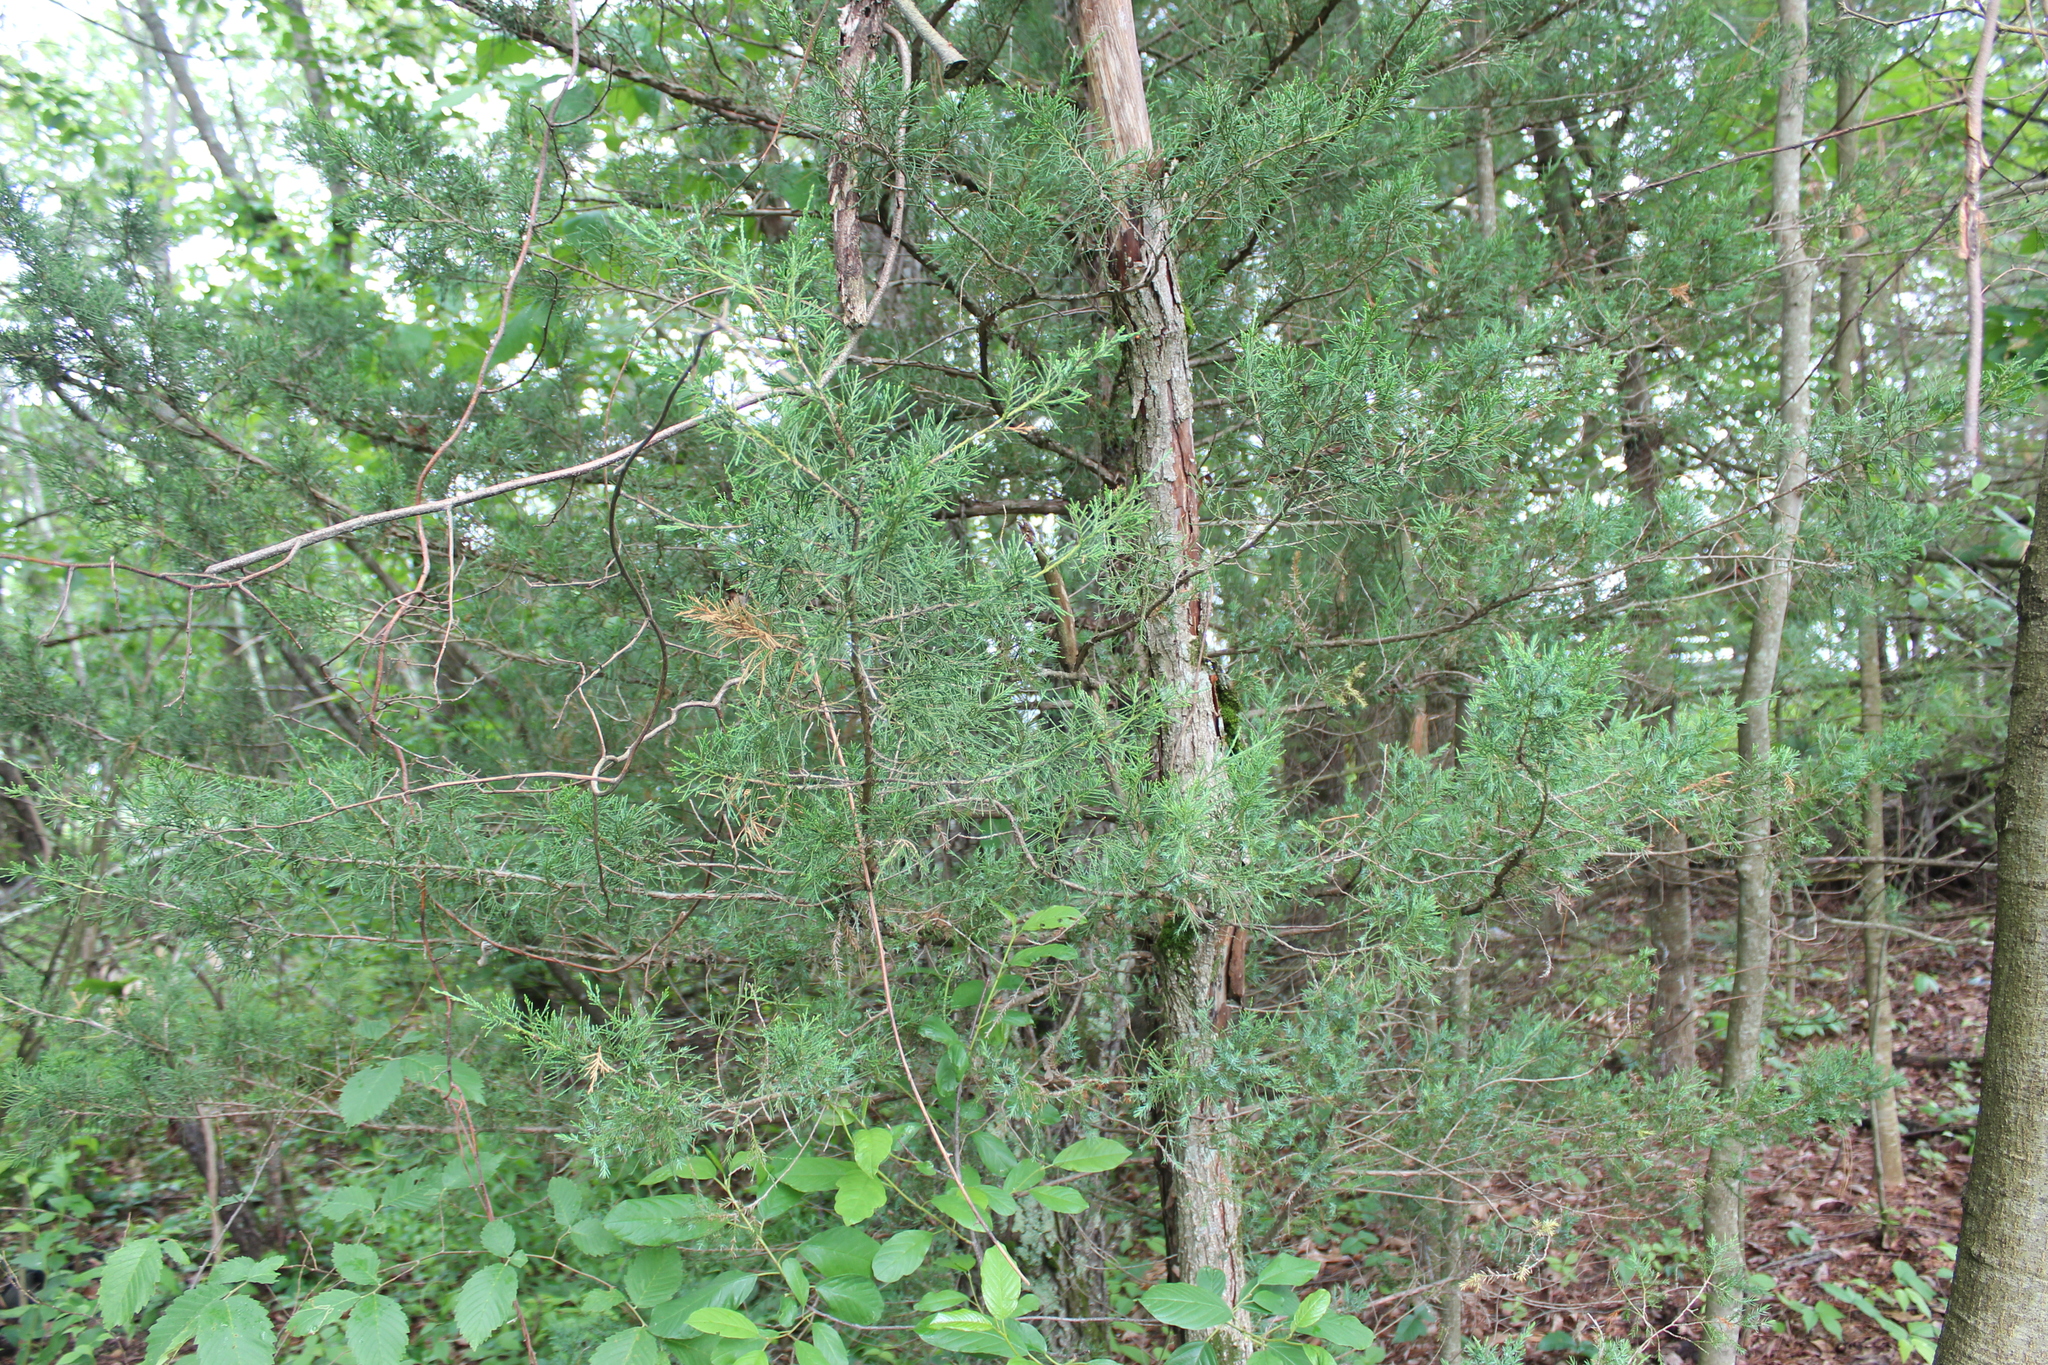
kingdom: Plantae
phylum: Tracheophyta
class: Pinopsida
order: Pinales
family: Cupressaceae
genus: Juniperus
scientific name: Juniperus virginiana
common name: Red juniper
